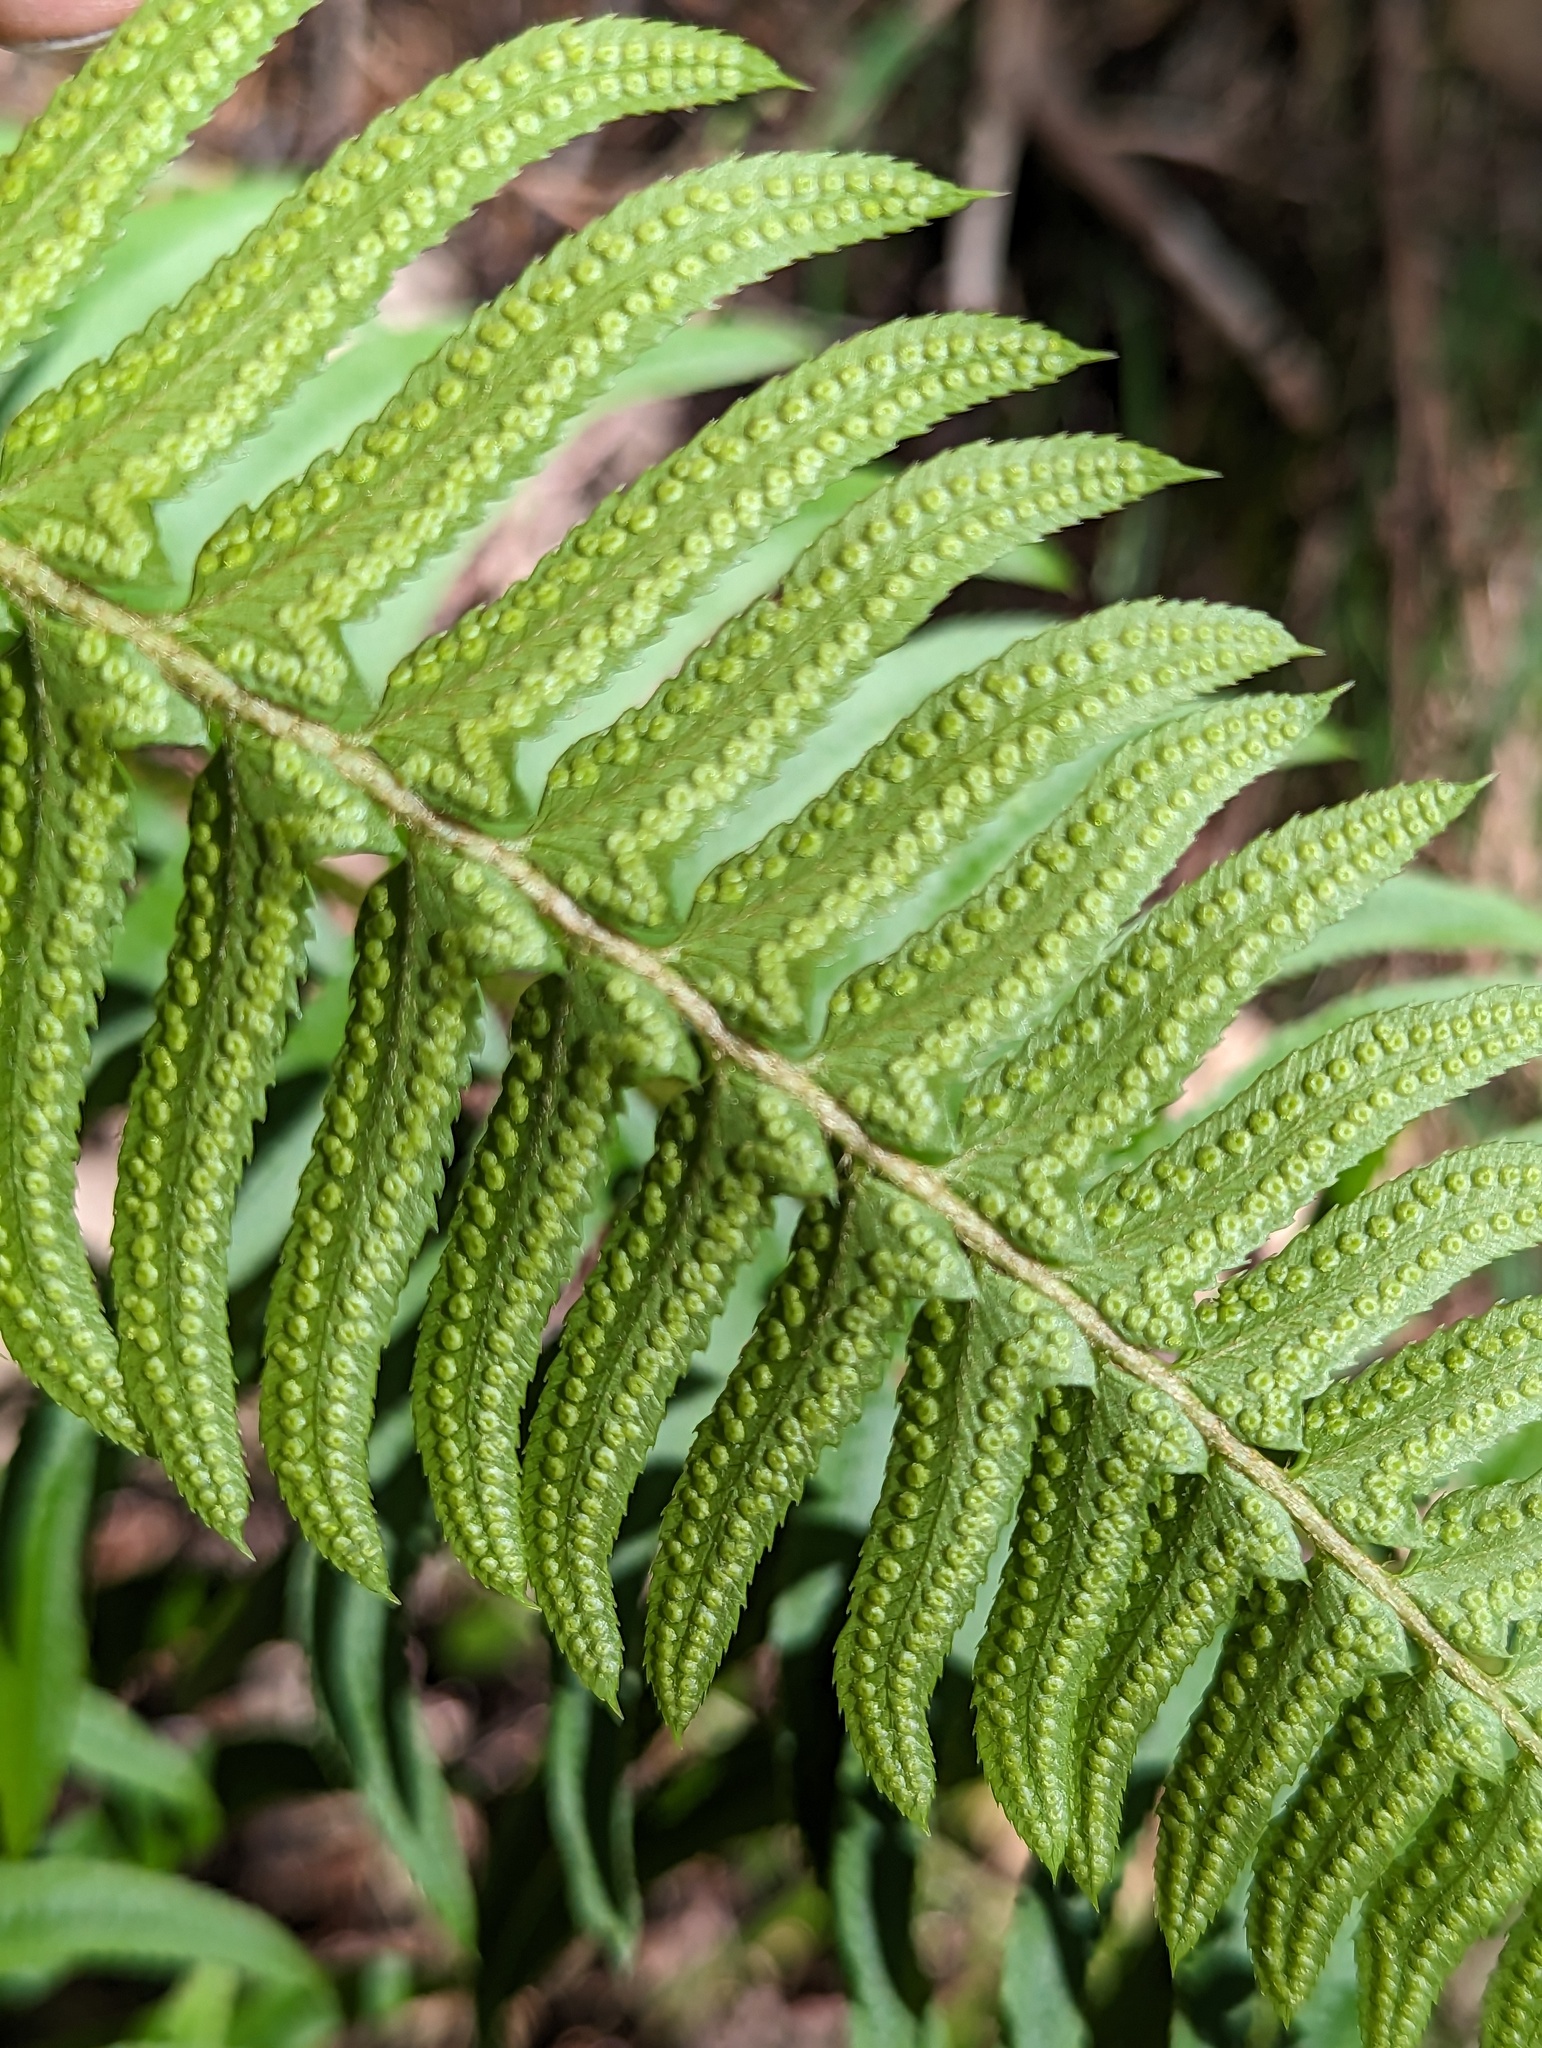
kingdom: Plantae
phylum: Tracheophyta
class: Polypodiopsida
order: Polypodiales
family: Dryopteridaceae
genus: Polystichum
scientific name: Polystichum munitum
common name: Western sword-fern
